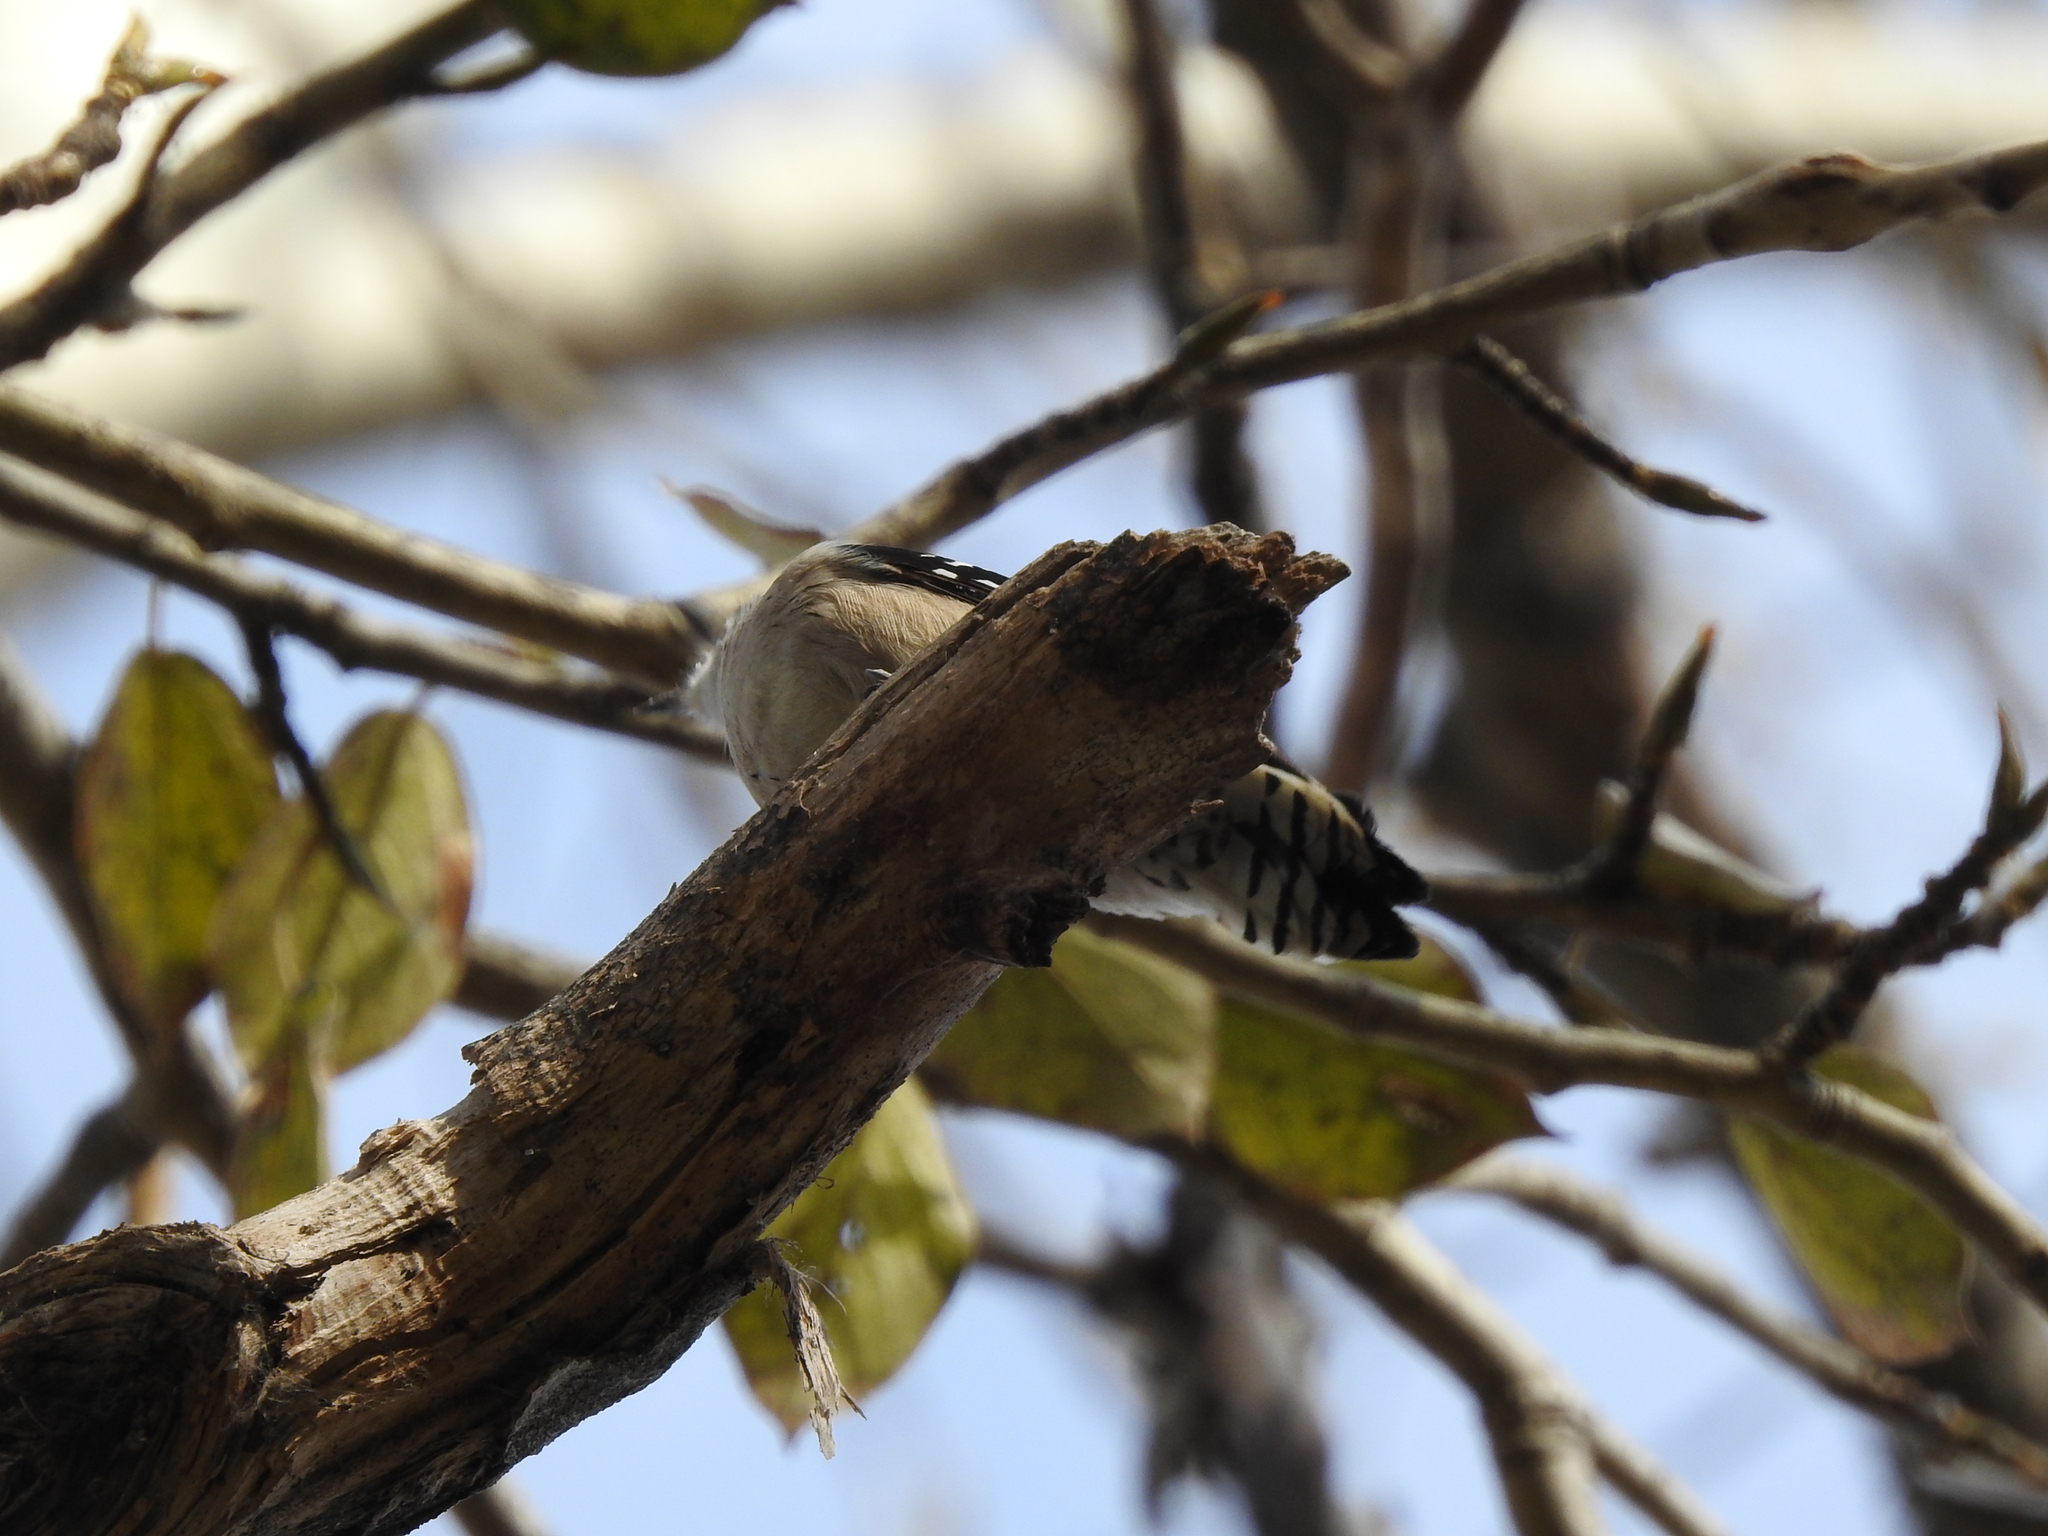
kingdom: Animalia
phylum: Chordata
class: Aves
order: Piciformes
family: Picidae
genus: Dryobates
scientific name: Dryobates minor
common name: Lesser spotted woodpecker
